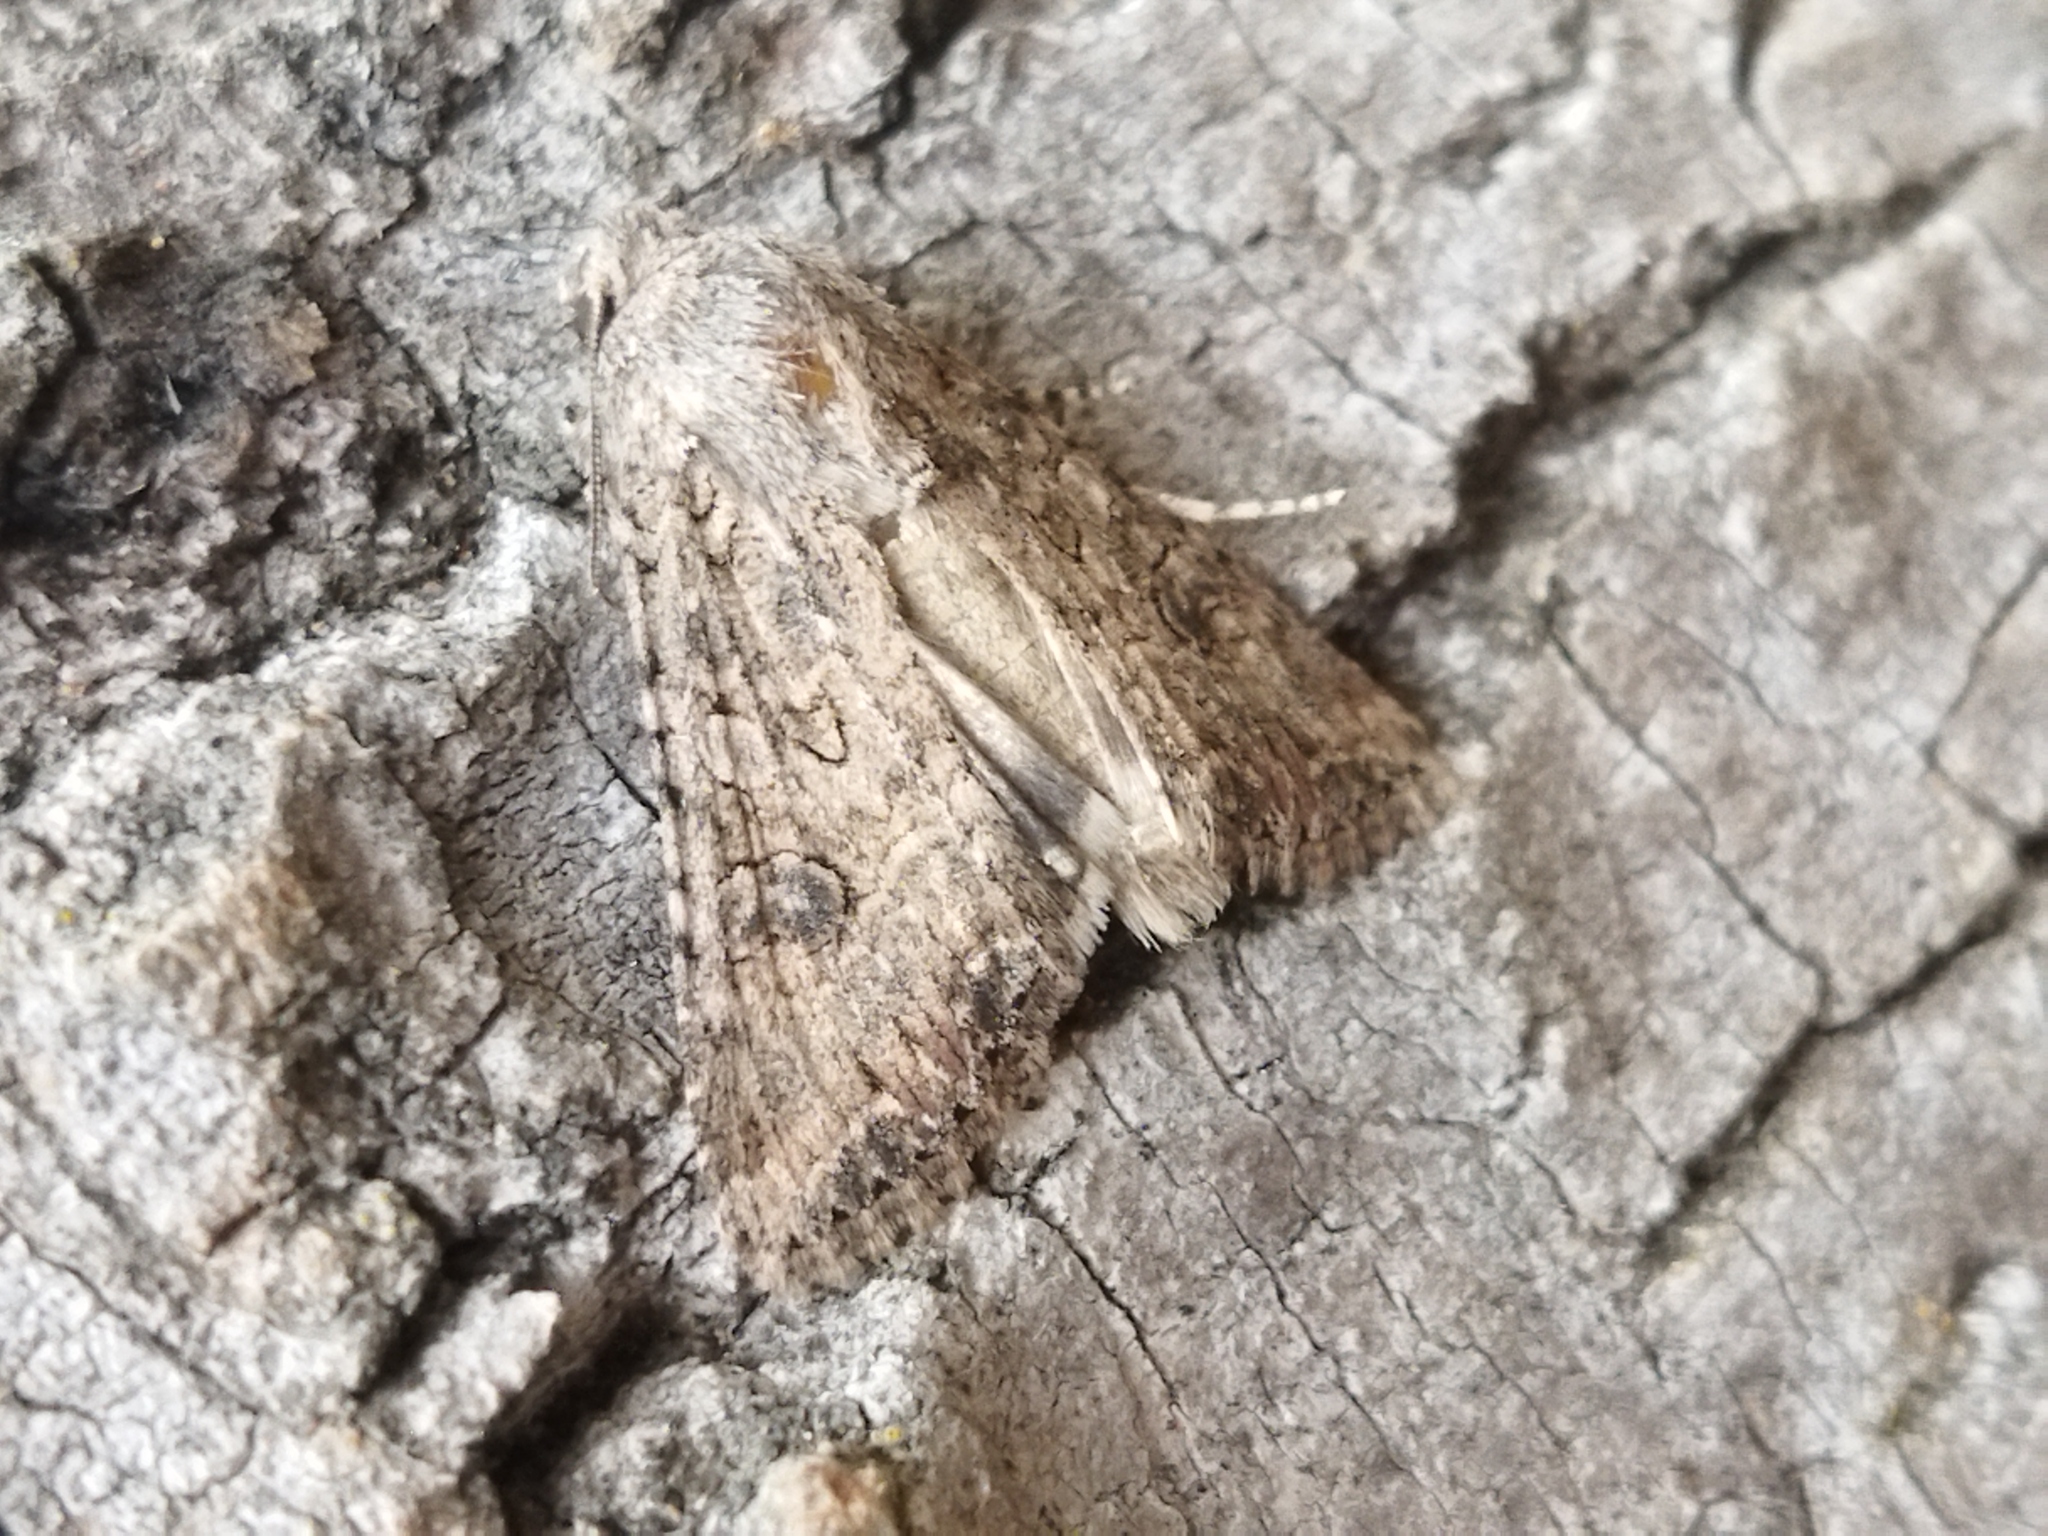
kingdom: Animalia
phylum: Arthropoda
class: Insecta
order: Lepidoptera
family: Noctuidae
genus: Anarta
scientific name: Anarta trifolii
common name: Clover cutworm moth
